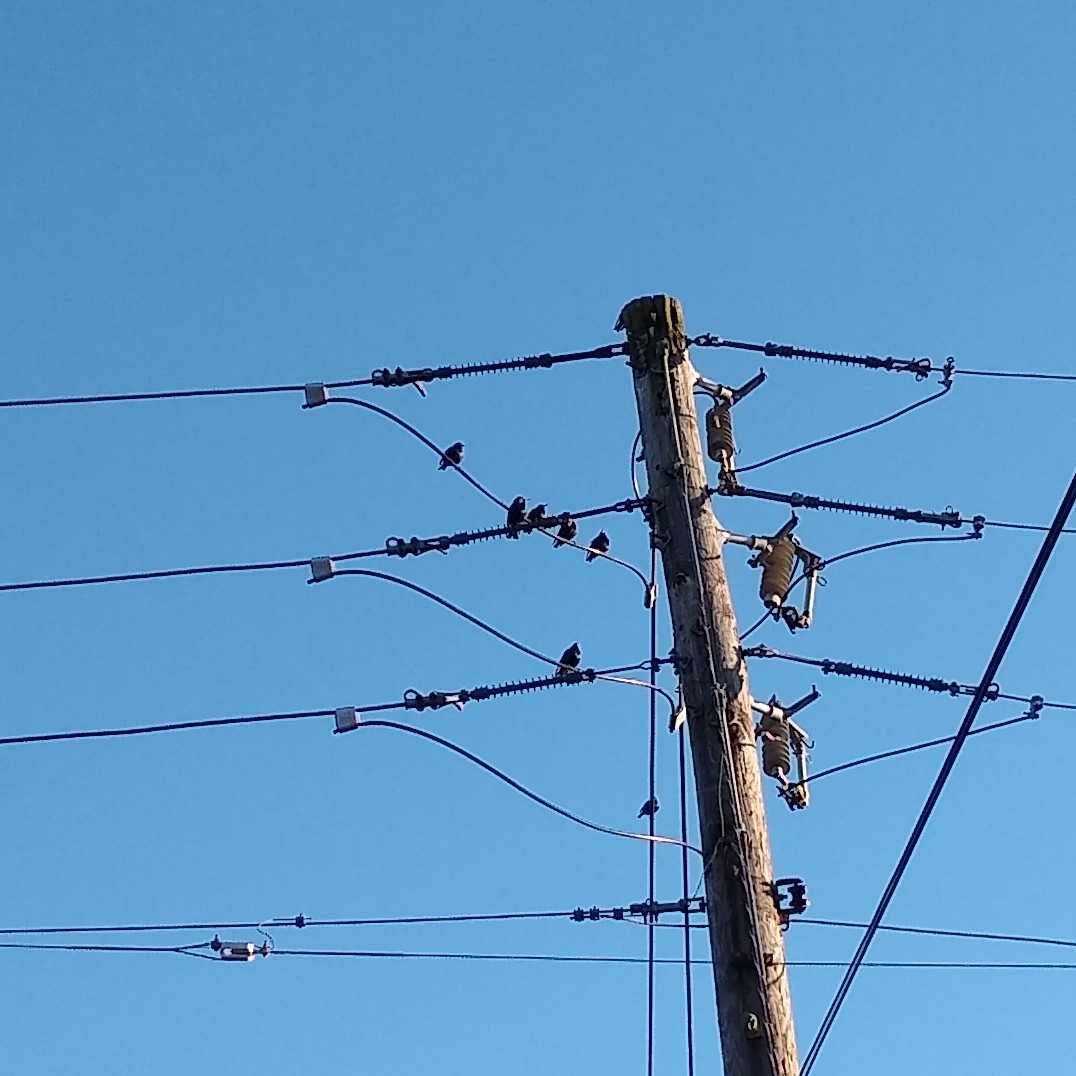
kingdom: Animalia
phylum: Chordata
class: Aves
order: Passeriformes
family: Sturnidae
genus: Sturnus
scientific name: Sturnus vulgaris
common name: Common starling
